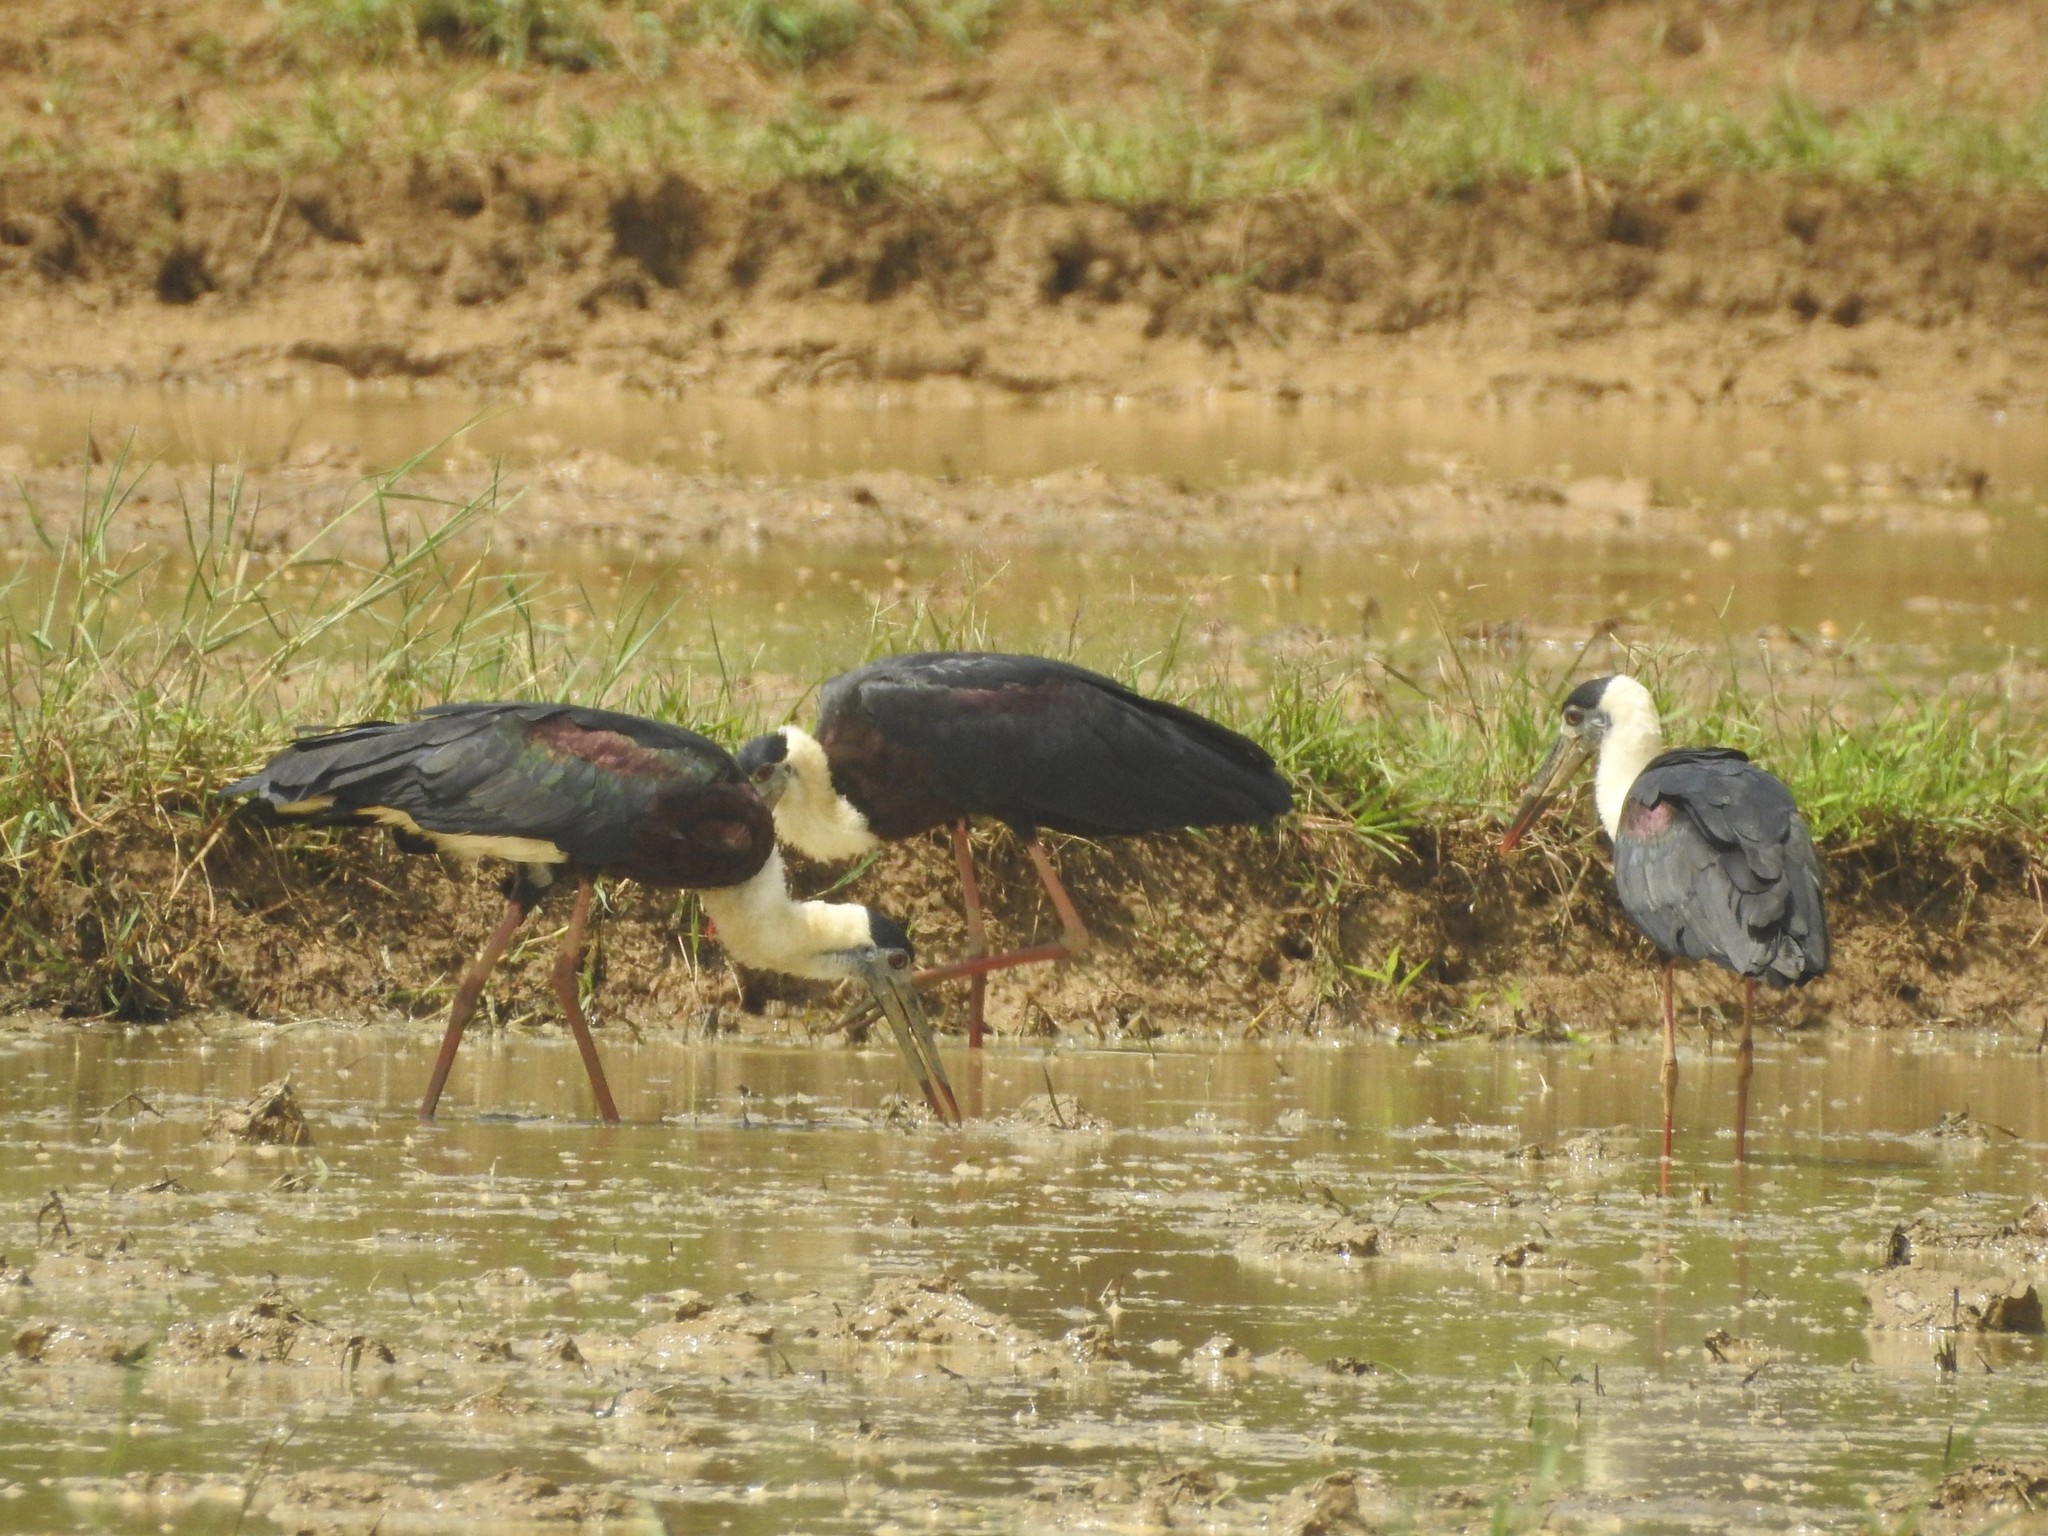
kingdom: Animalia
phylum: Chordata
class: Aves
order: Ciconiiformes
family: Ciconiidae
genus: Ciconia
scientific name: Ciconia episcopus
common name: Woolly-necked stork
